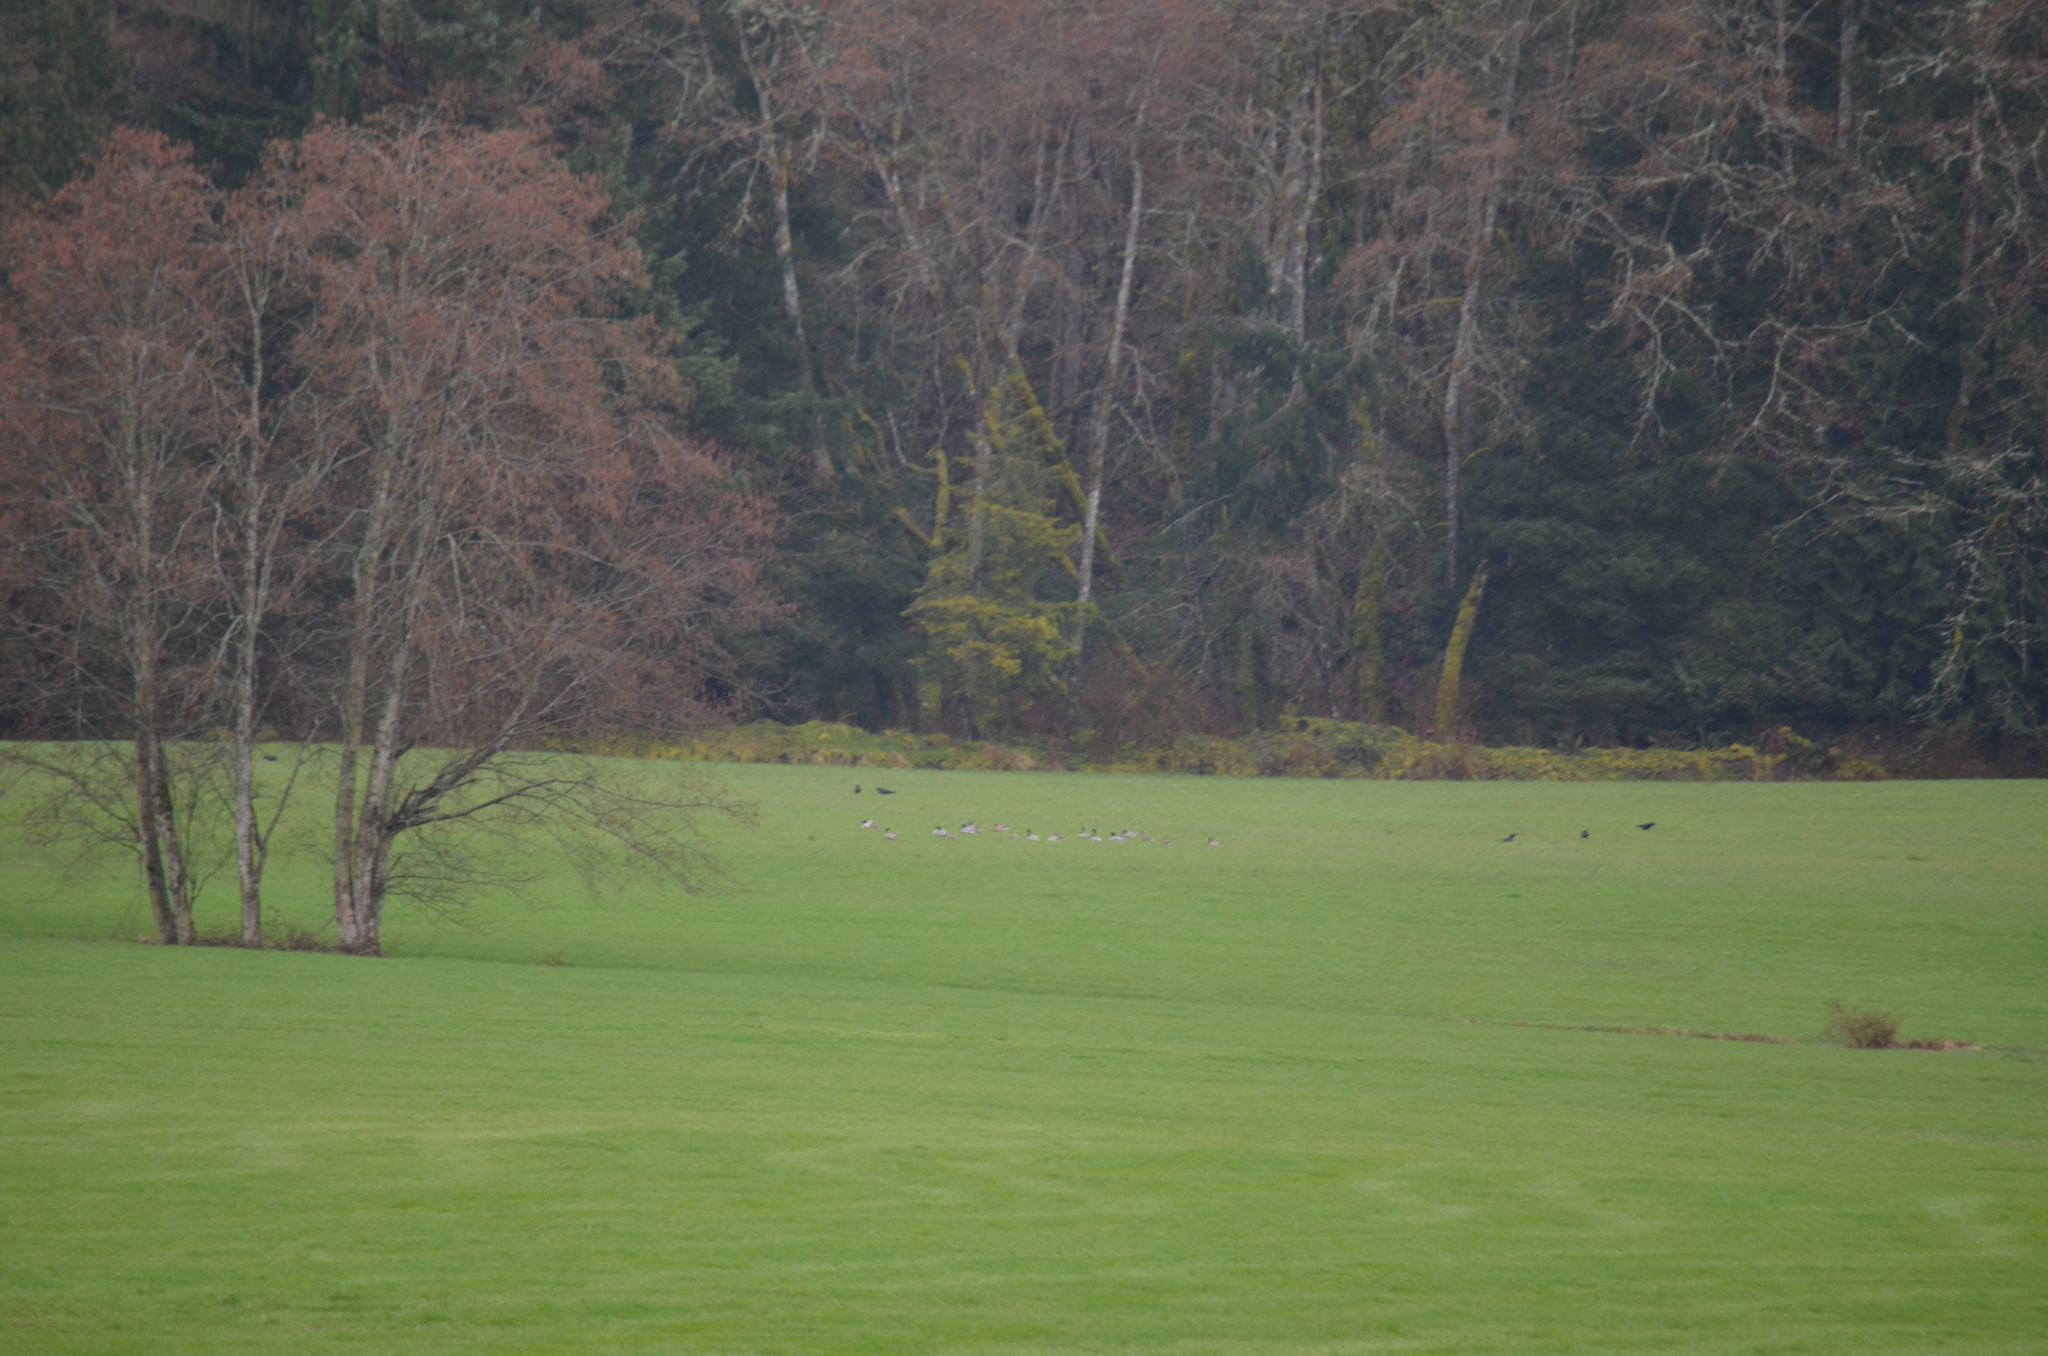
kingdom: Animalia
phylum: Chordata
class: Aves
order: Anseriformes
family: Anatidae
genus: Anas
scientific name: Anas platyrhynchos
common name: Mallard
